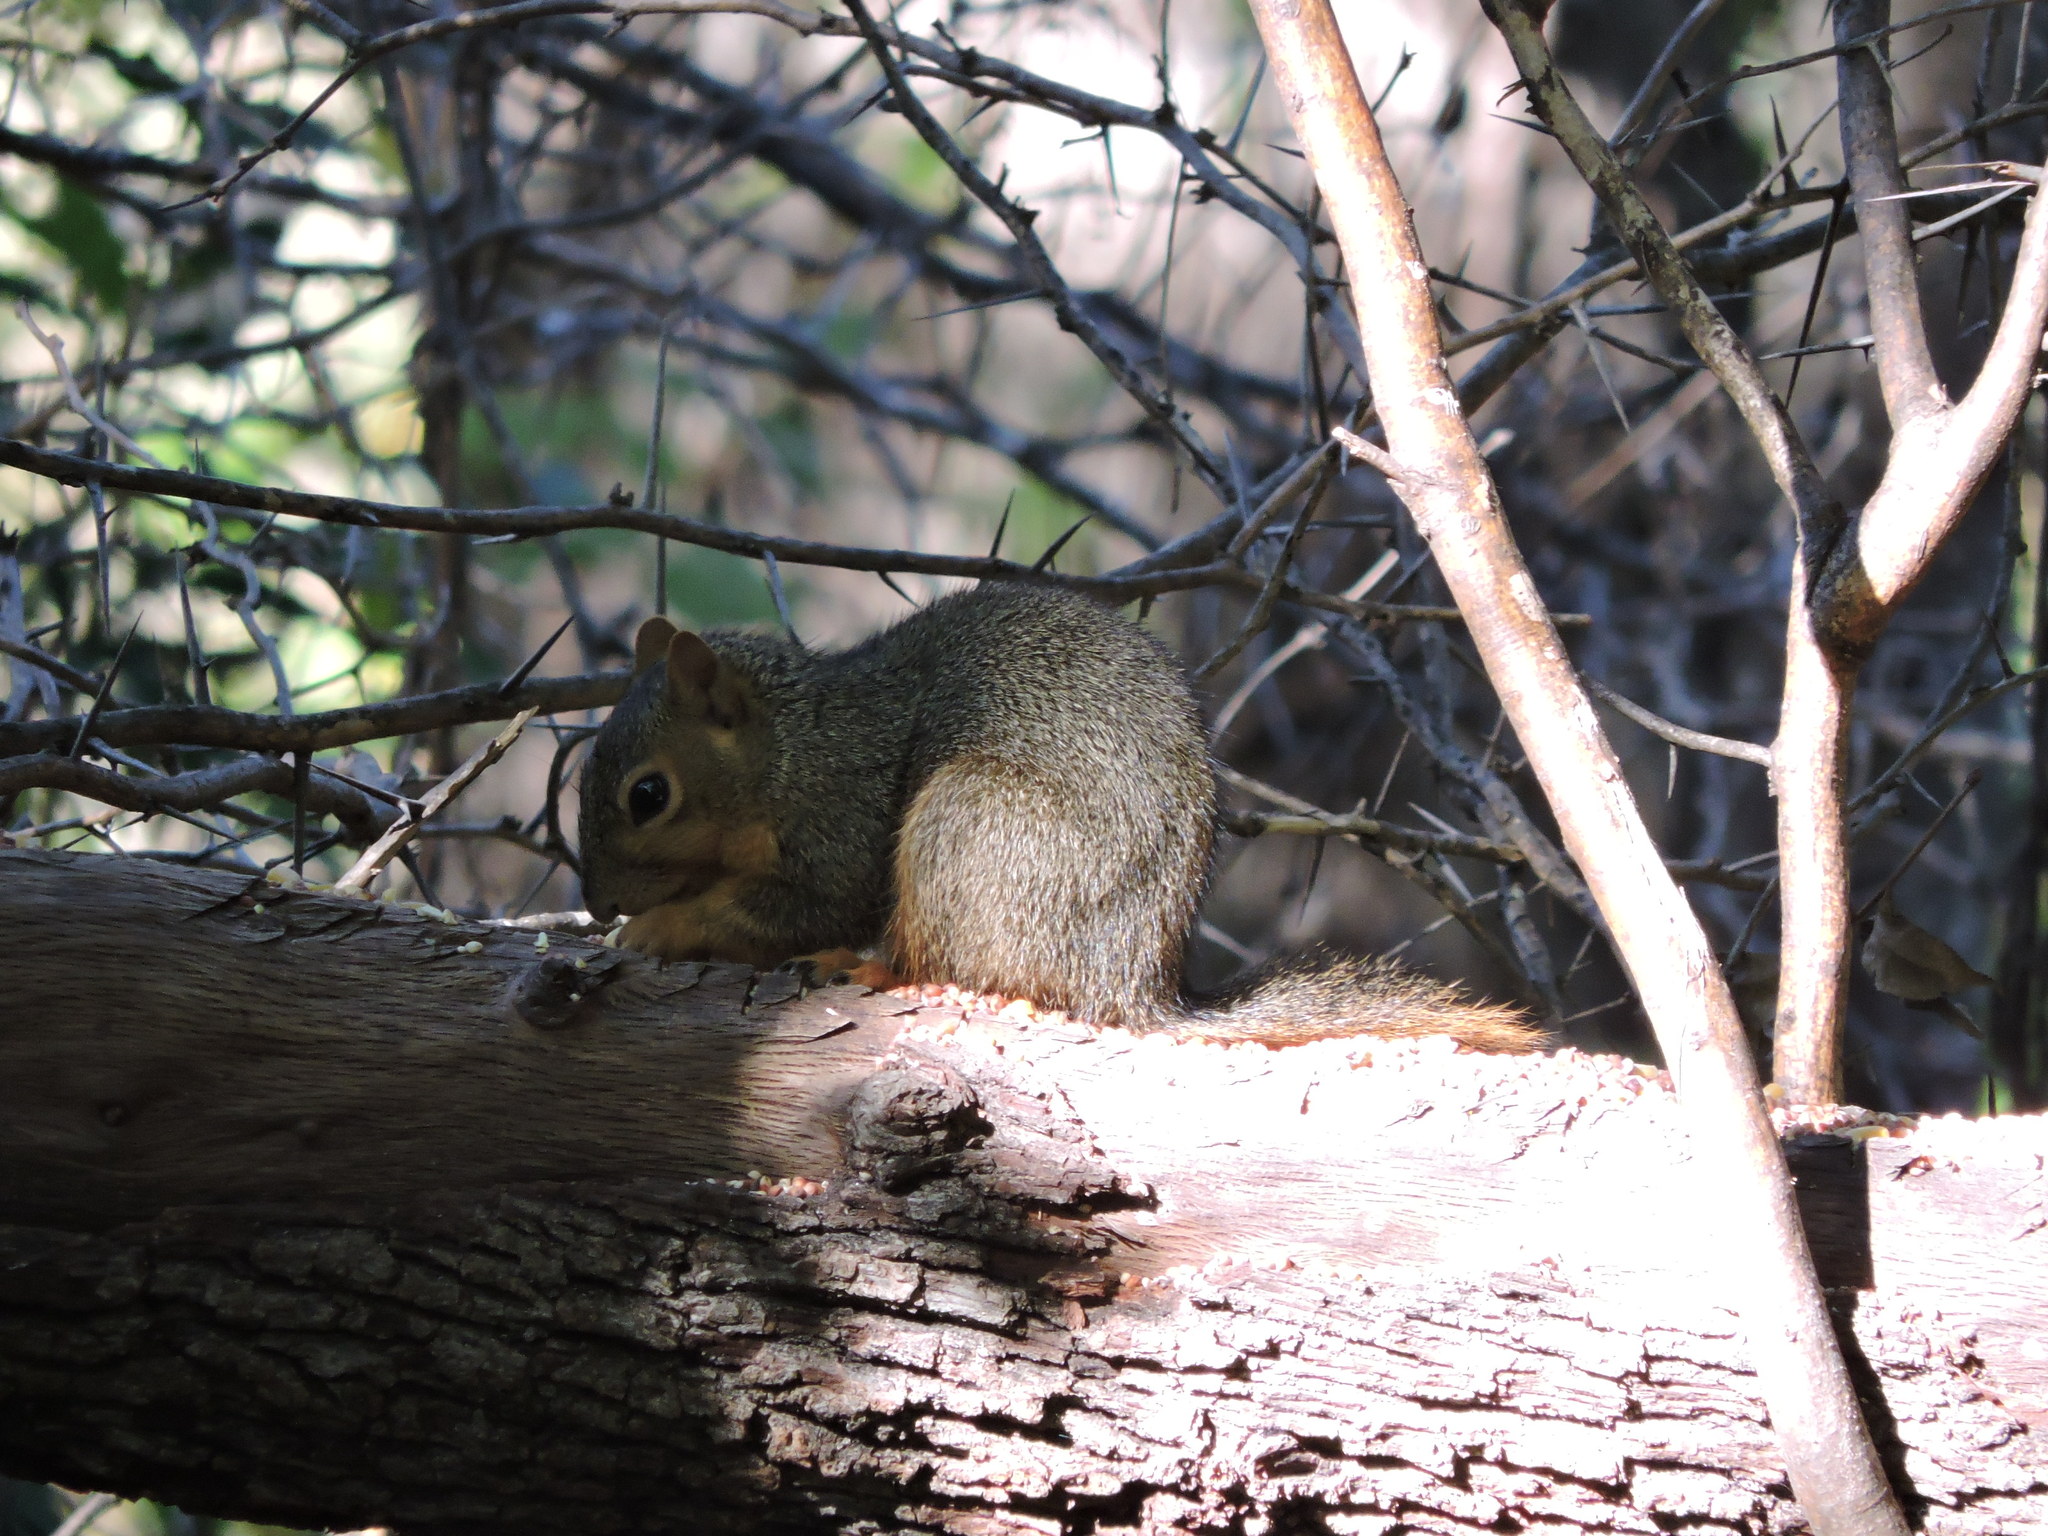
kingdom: Animalia
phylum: Chordata
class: Mammalia
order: Rodentia
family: Sciuridae
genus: Sciurus
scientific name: Sciurus niger
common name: Fox squirrel
